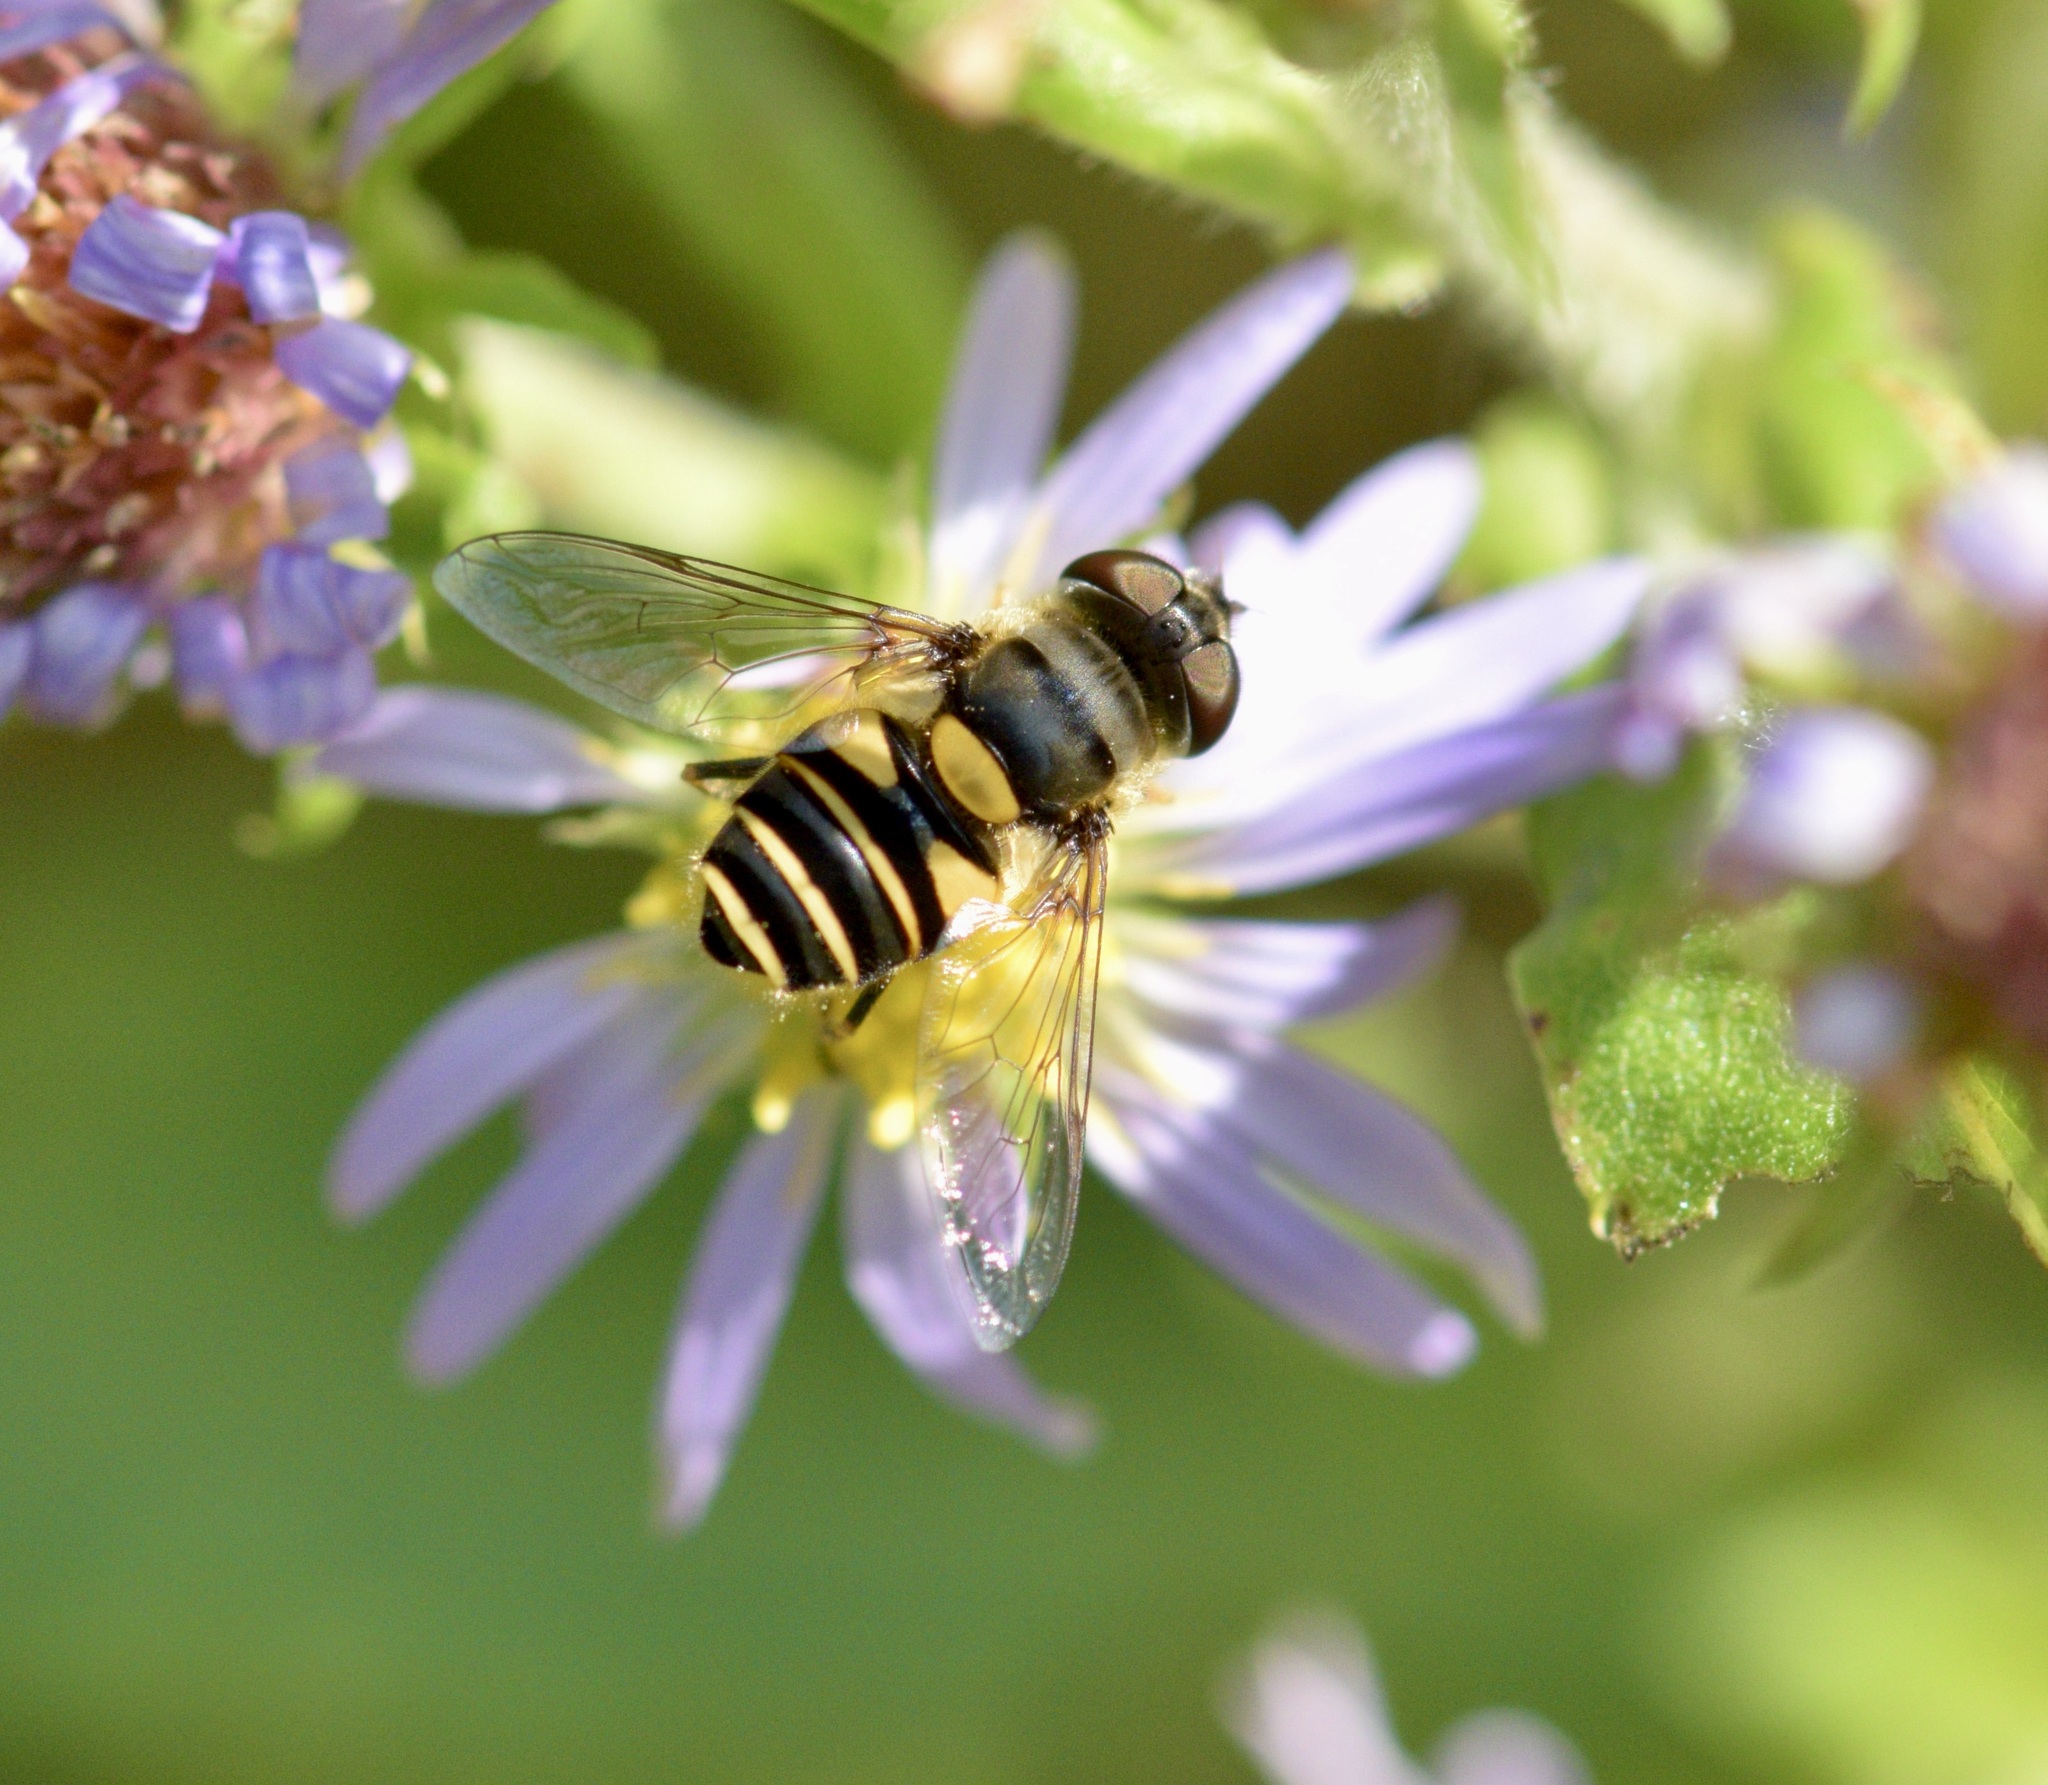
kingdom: Animalia
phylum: Arthropoda
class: Insecta
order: Diptera
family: Syrphidae
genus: Eristalis
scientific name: Eristalis transversa
